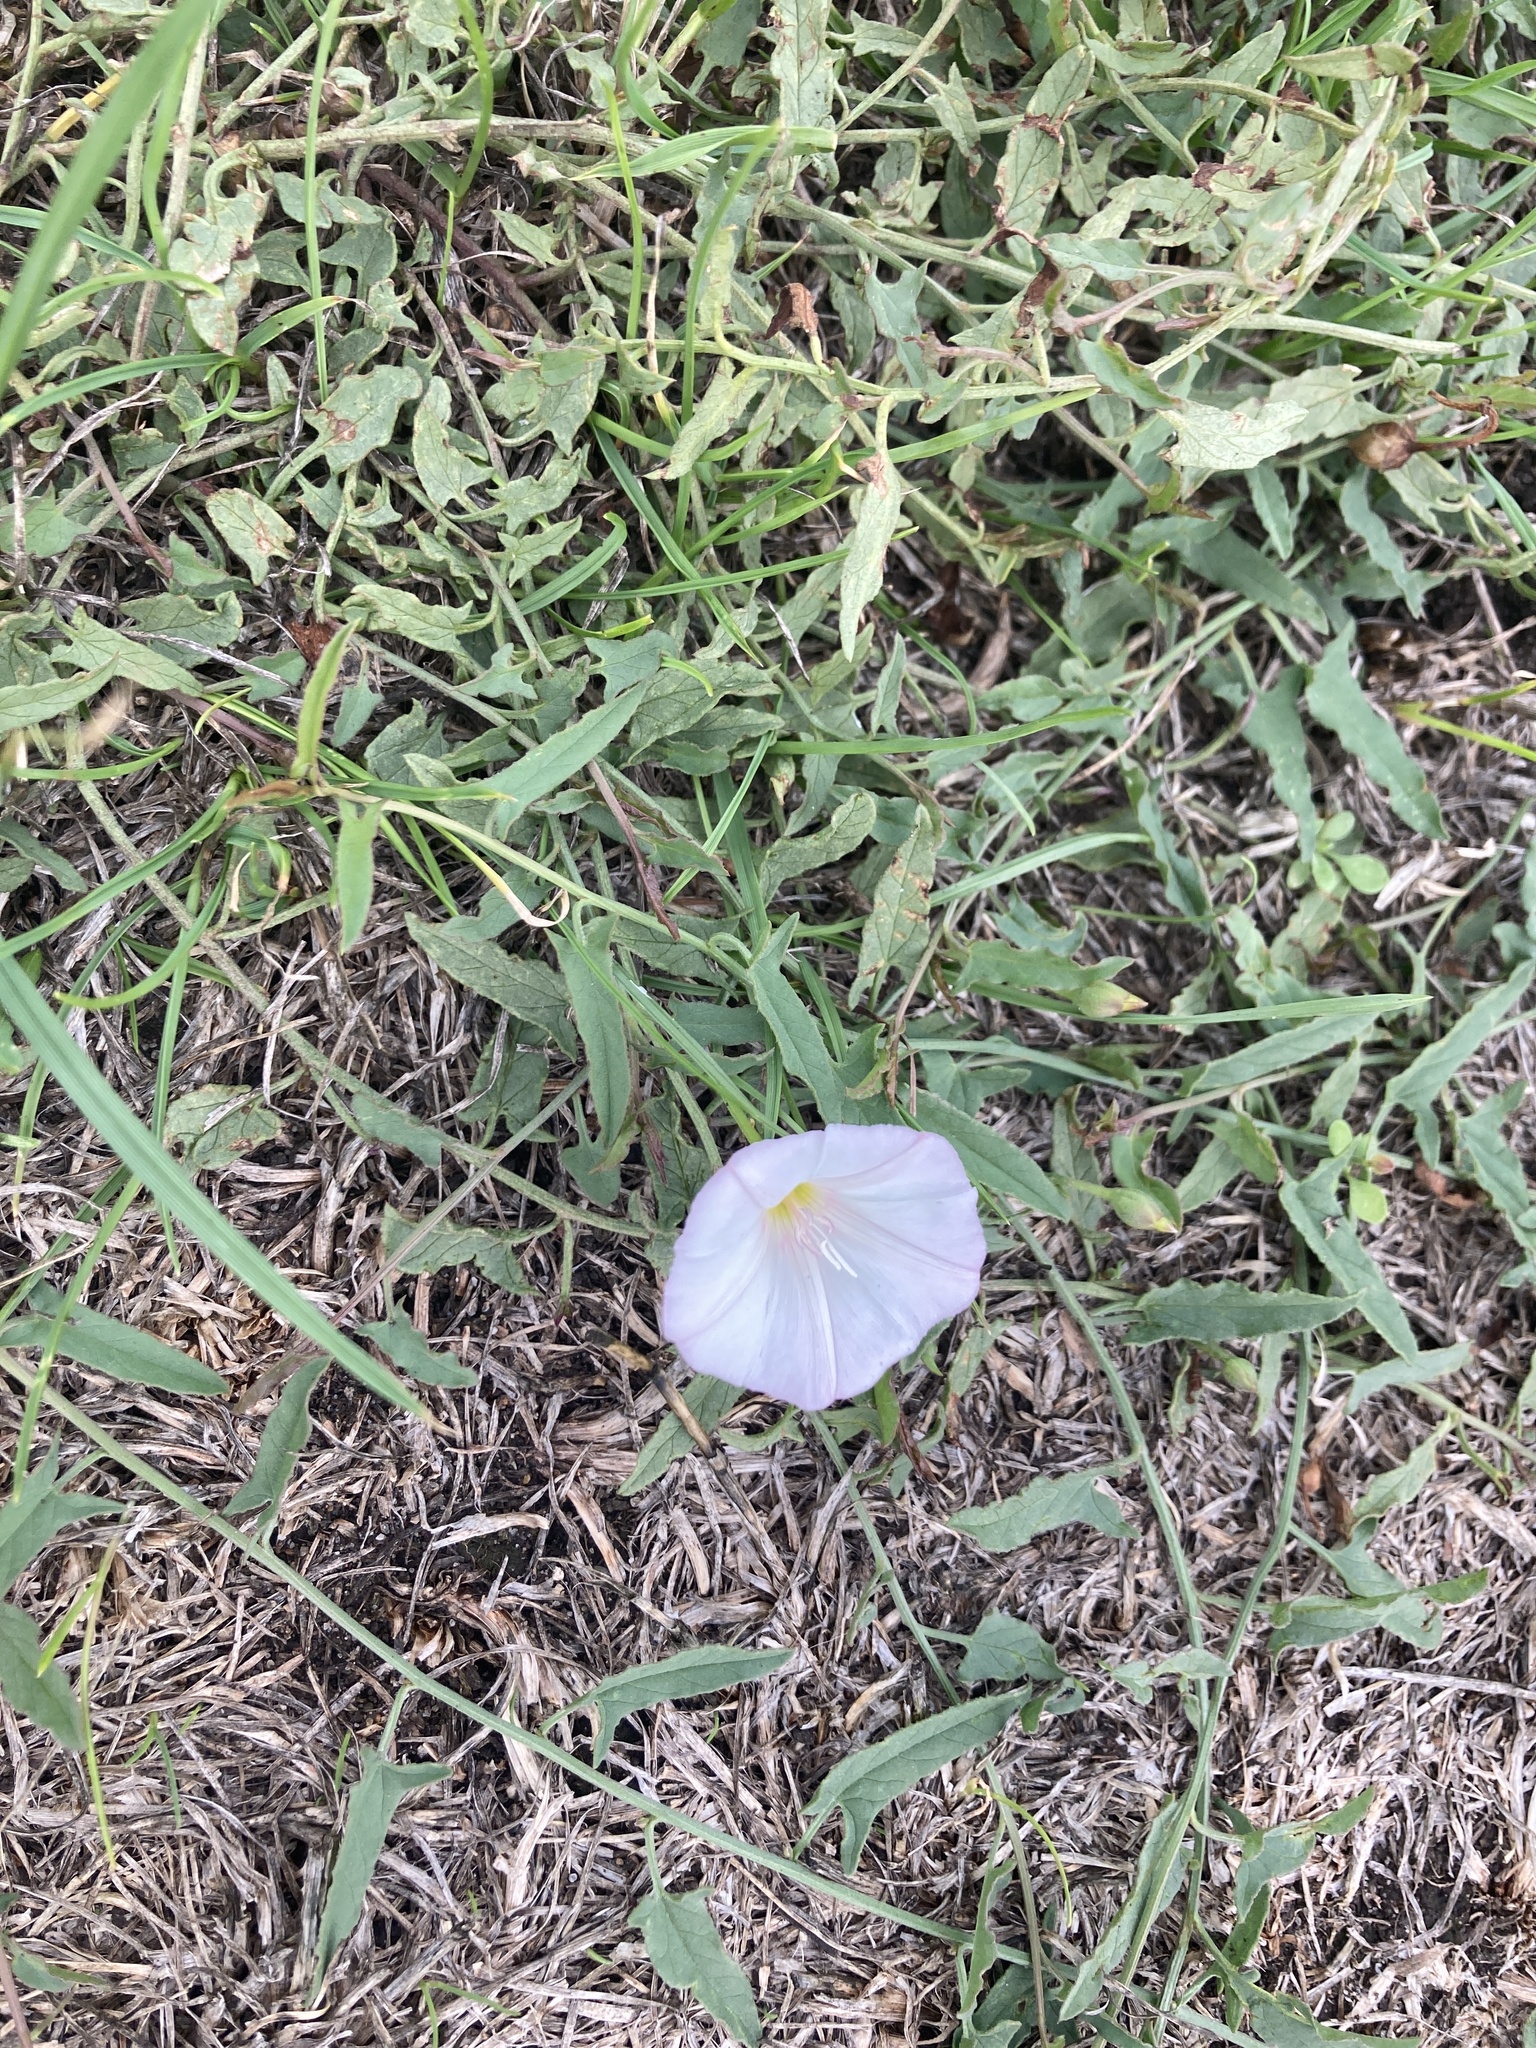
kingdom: Plantae
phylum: Tracheophyta
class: Magnoliopsida
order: Solanales
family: Convolvulaceae
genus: Convolvulus
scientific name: Convolvulus arvensis
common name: Field bindweed
